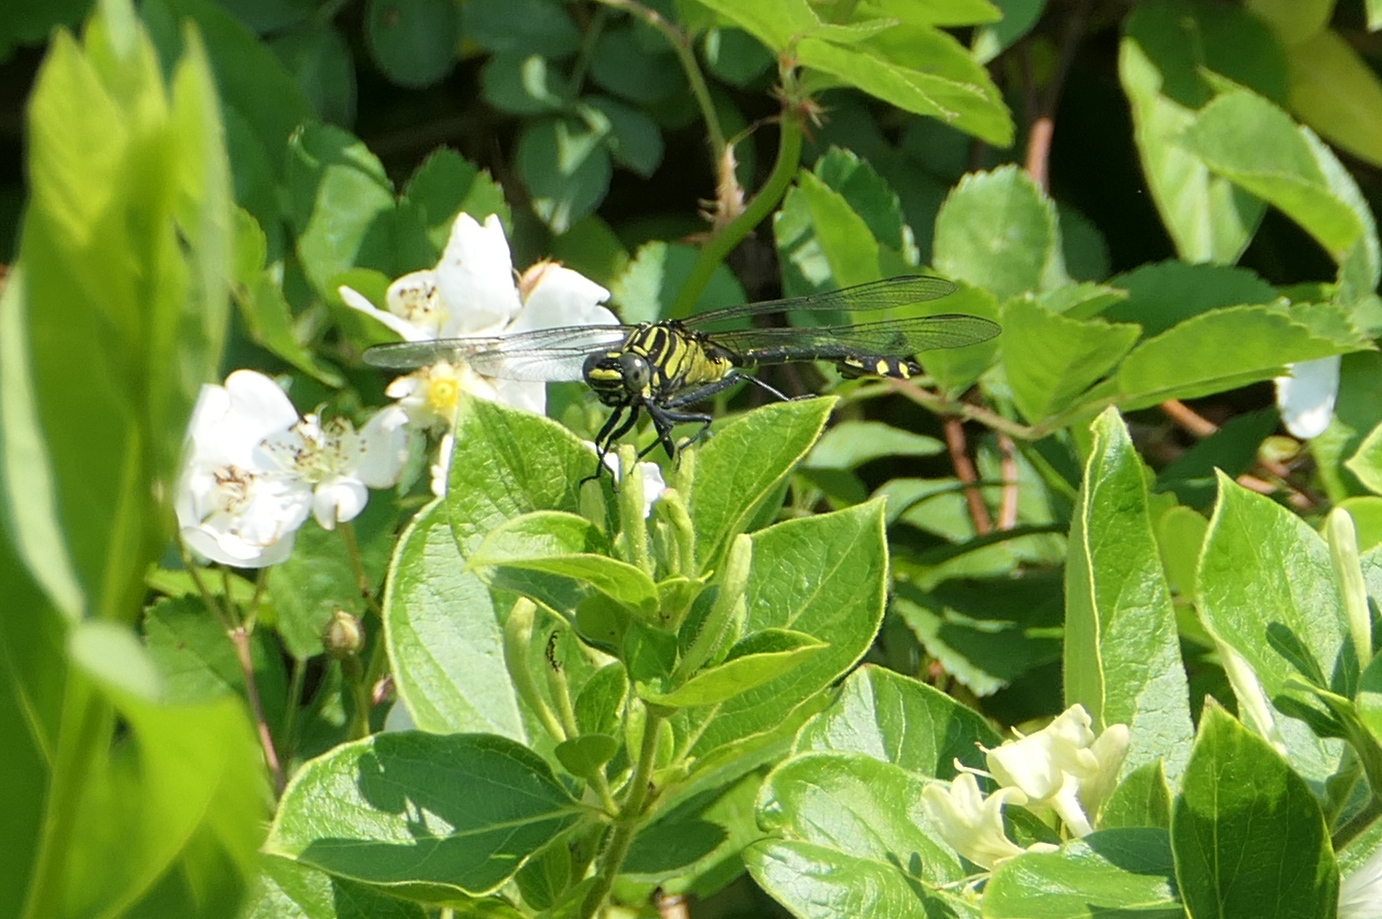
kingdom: Animalia
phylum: Arthropoda
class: Insecta
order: Odonata
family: Gomphidae
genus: Gomphurus
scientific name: Gomphurus vastus
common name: Cobra clubtail
